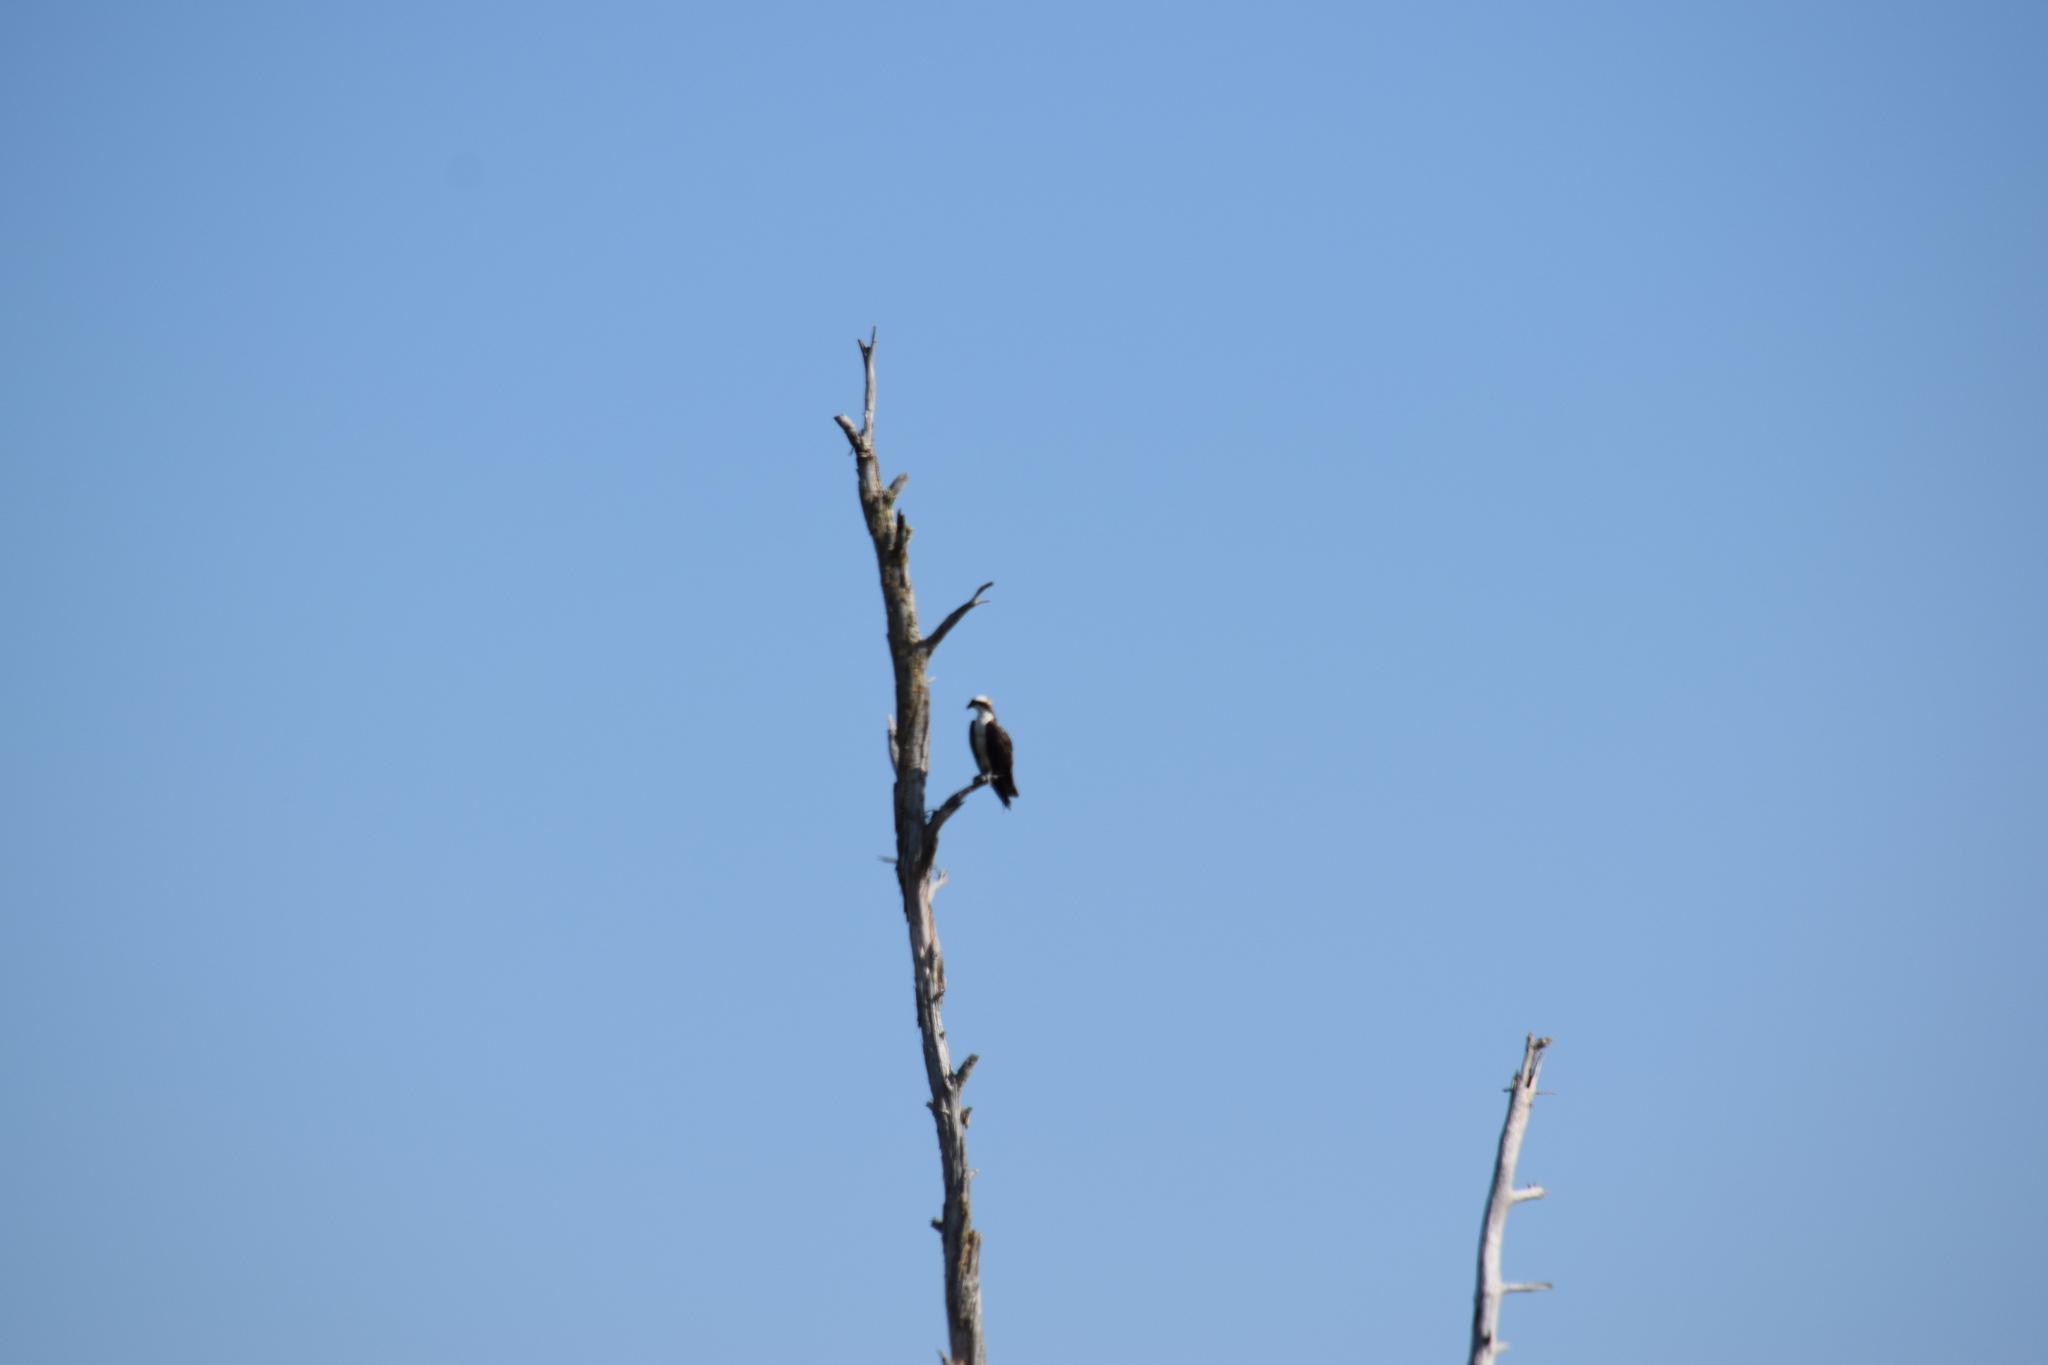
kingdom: Animalia
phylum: Chordata
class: Aves
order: Accipitriformes
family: Pandionidae
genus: Pandion
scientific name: Pandion haliaetus
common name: Osprey
